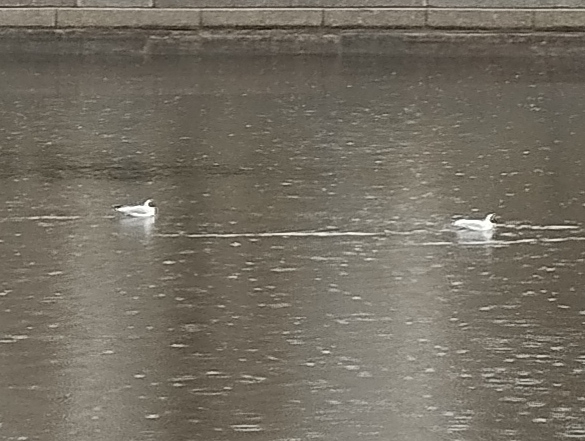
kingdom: Animalia
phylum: Chordata
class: Aves
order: Charadriiformes
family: Laridae
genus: Chroicocephalus
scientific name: Chroicocephalus ridibundus
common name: Black-headed gull
